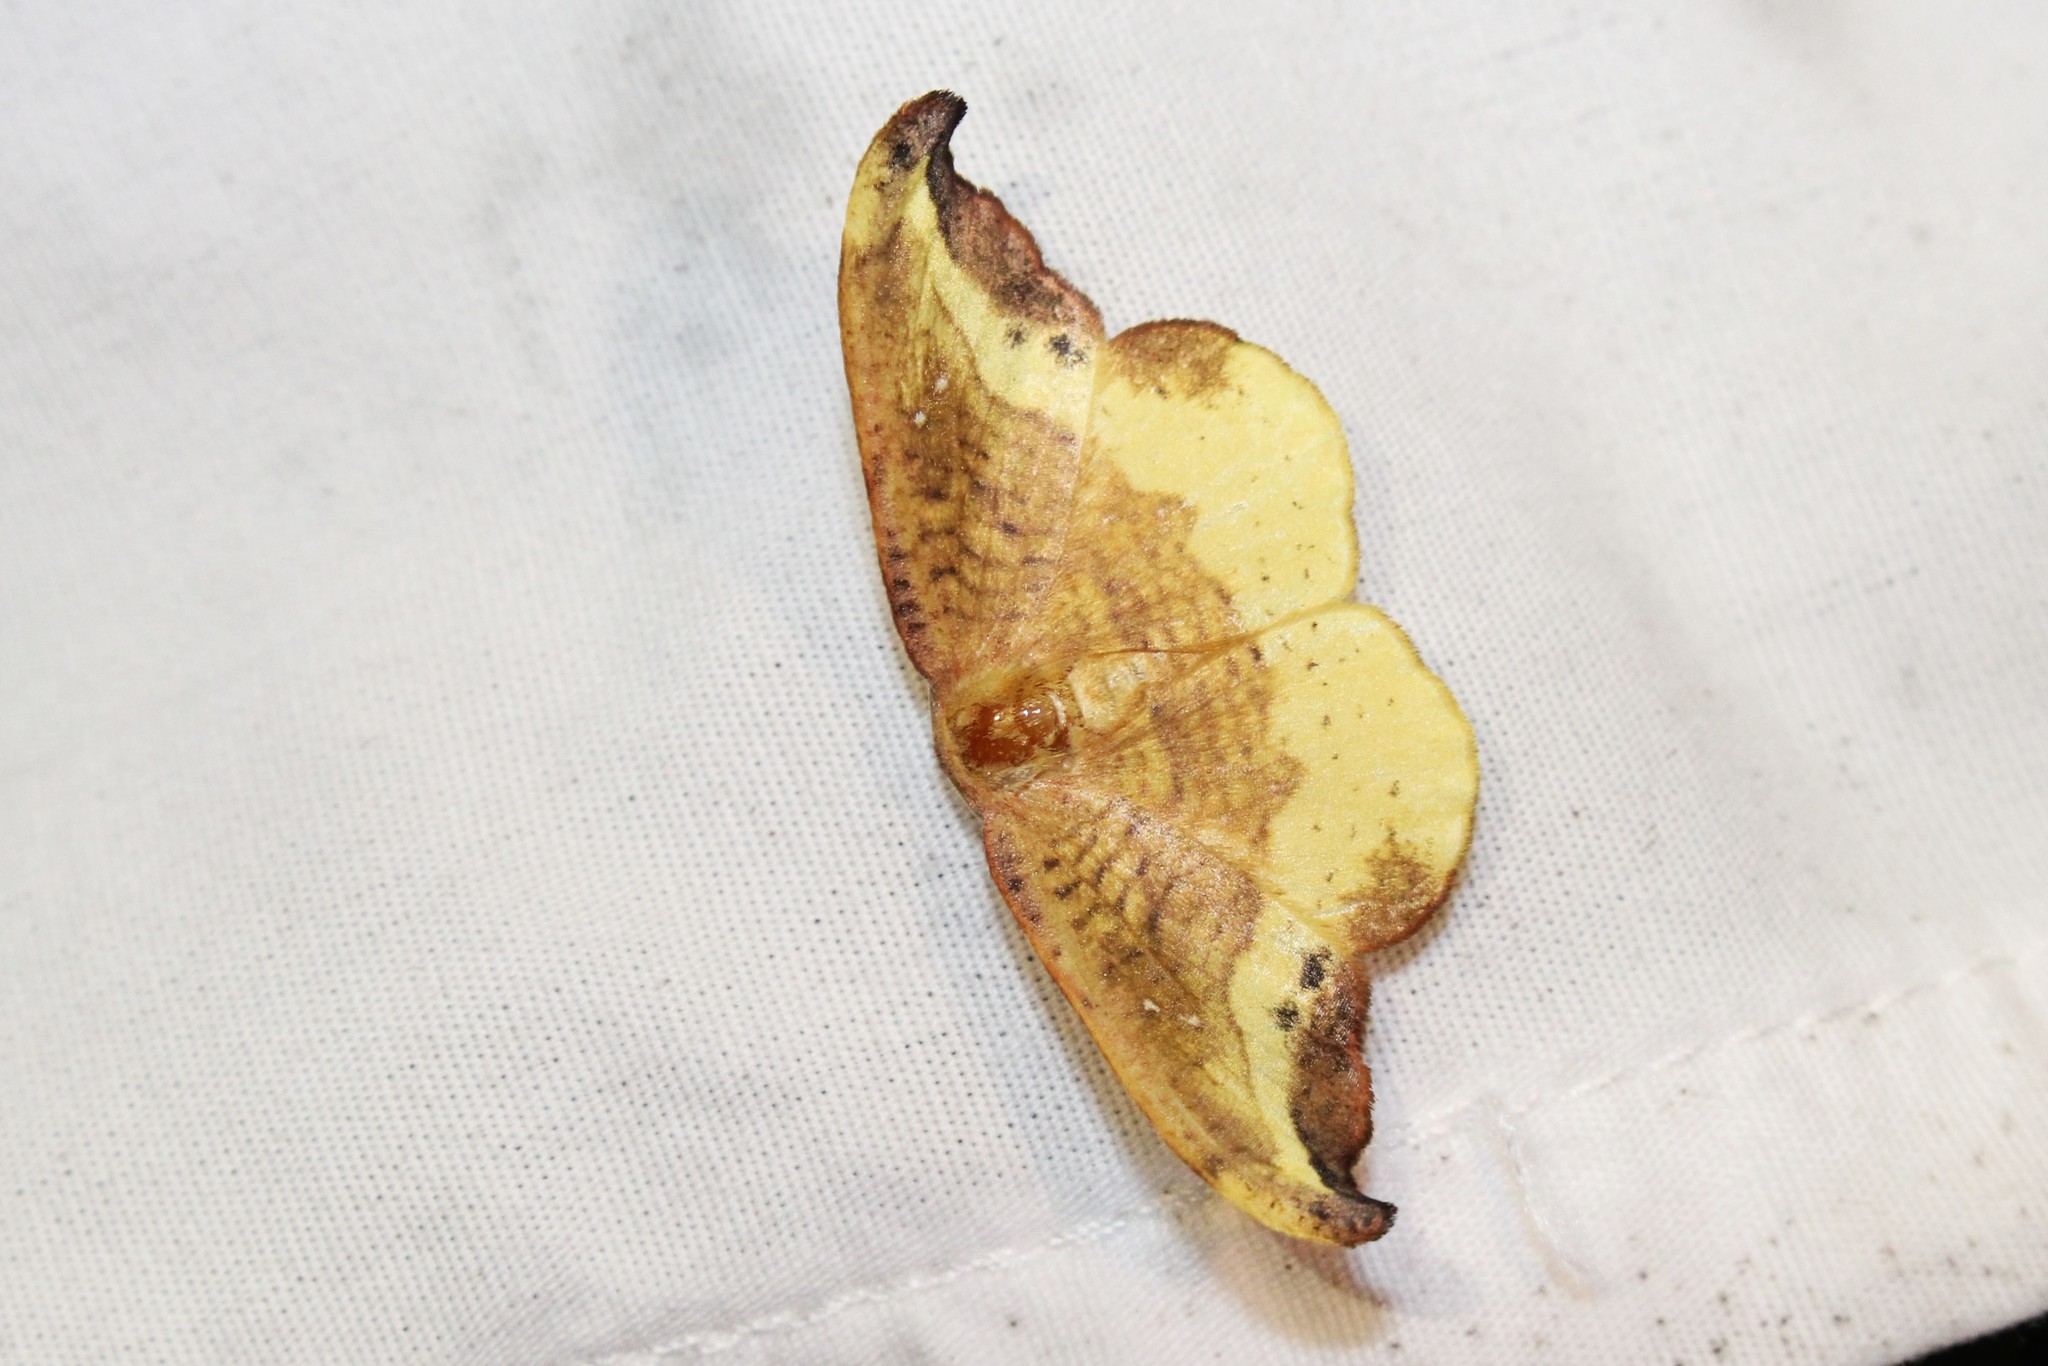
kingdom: Animalia
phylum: Arthropoda
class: Insecta
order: Lepidoptera
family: Drepanidae
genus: Oreta
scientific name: Oreta rosea
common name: Rose hooktip
